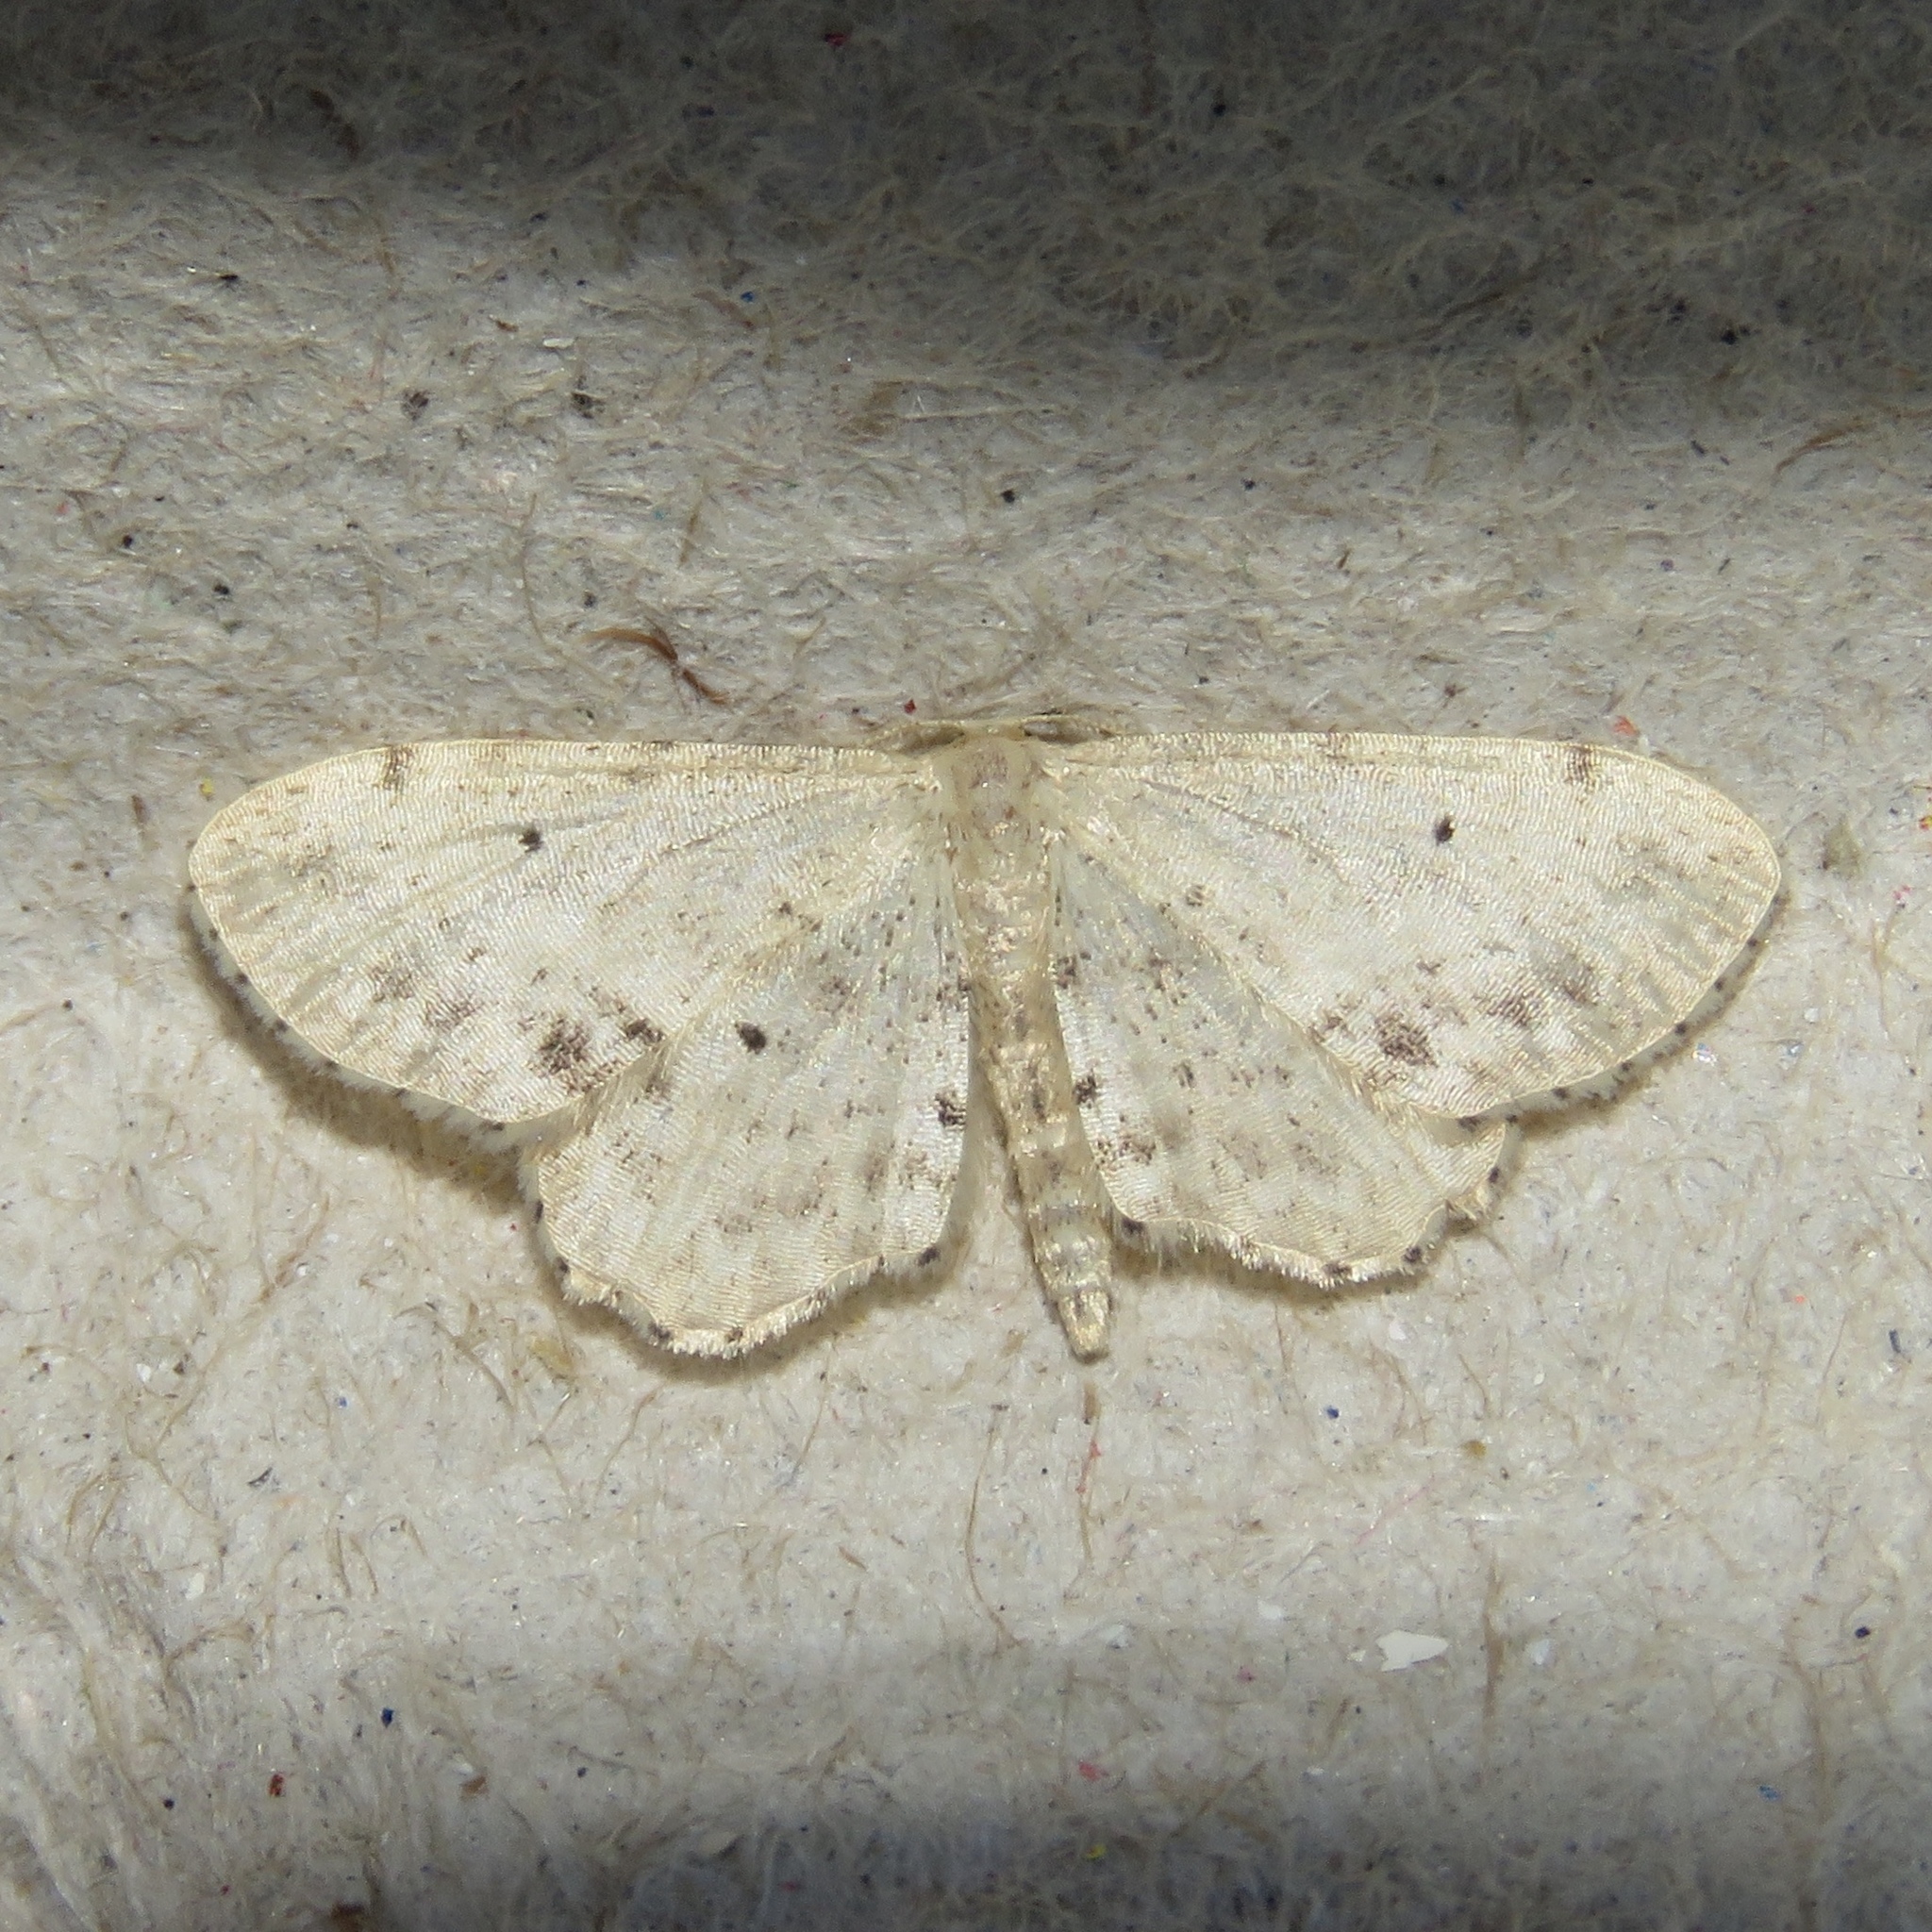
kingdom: Animalia
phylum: Arthropoda
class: Insecta
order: Lepidoptera
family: Geometridae
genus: Idaea
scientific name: Idaea dimidiata
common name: Single-dotted wave
